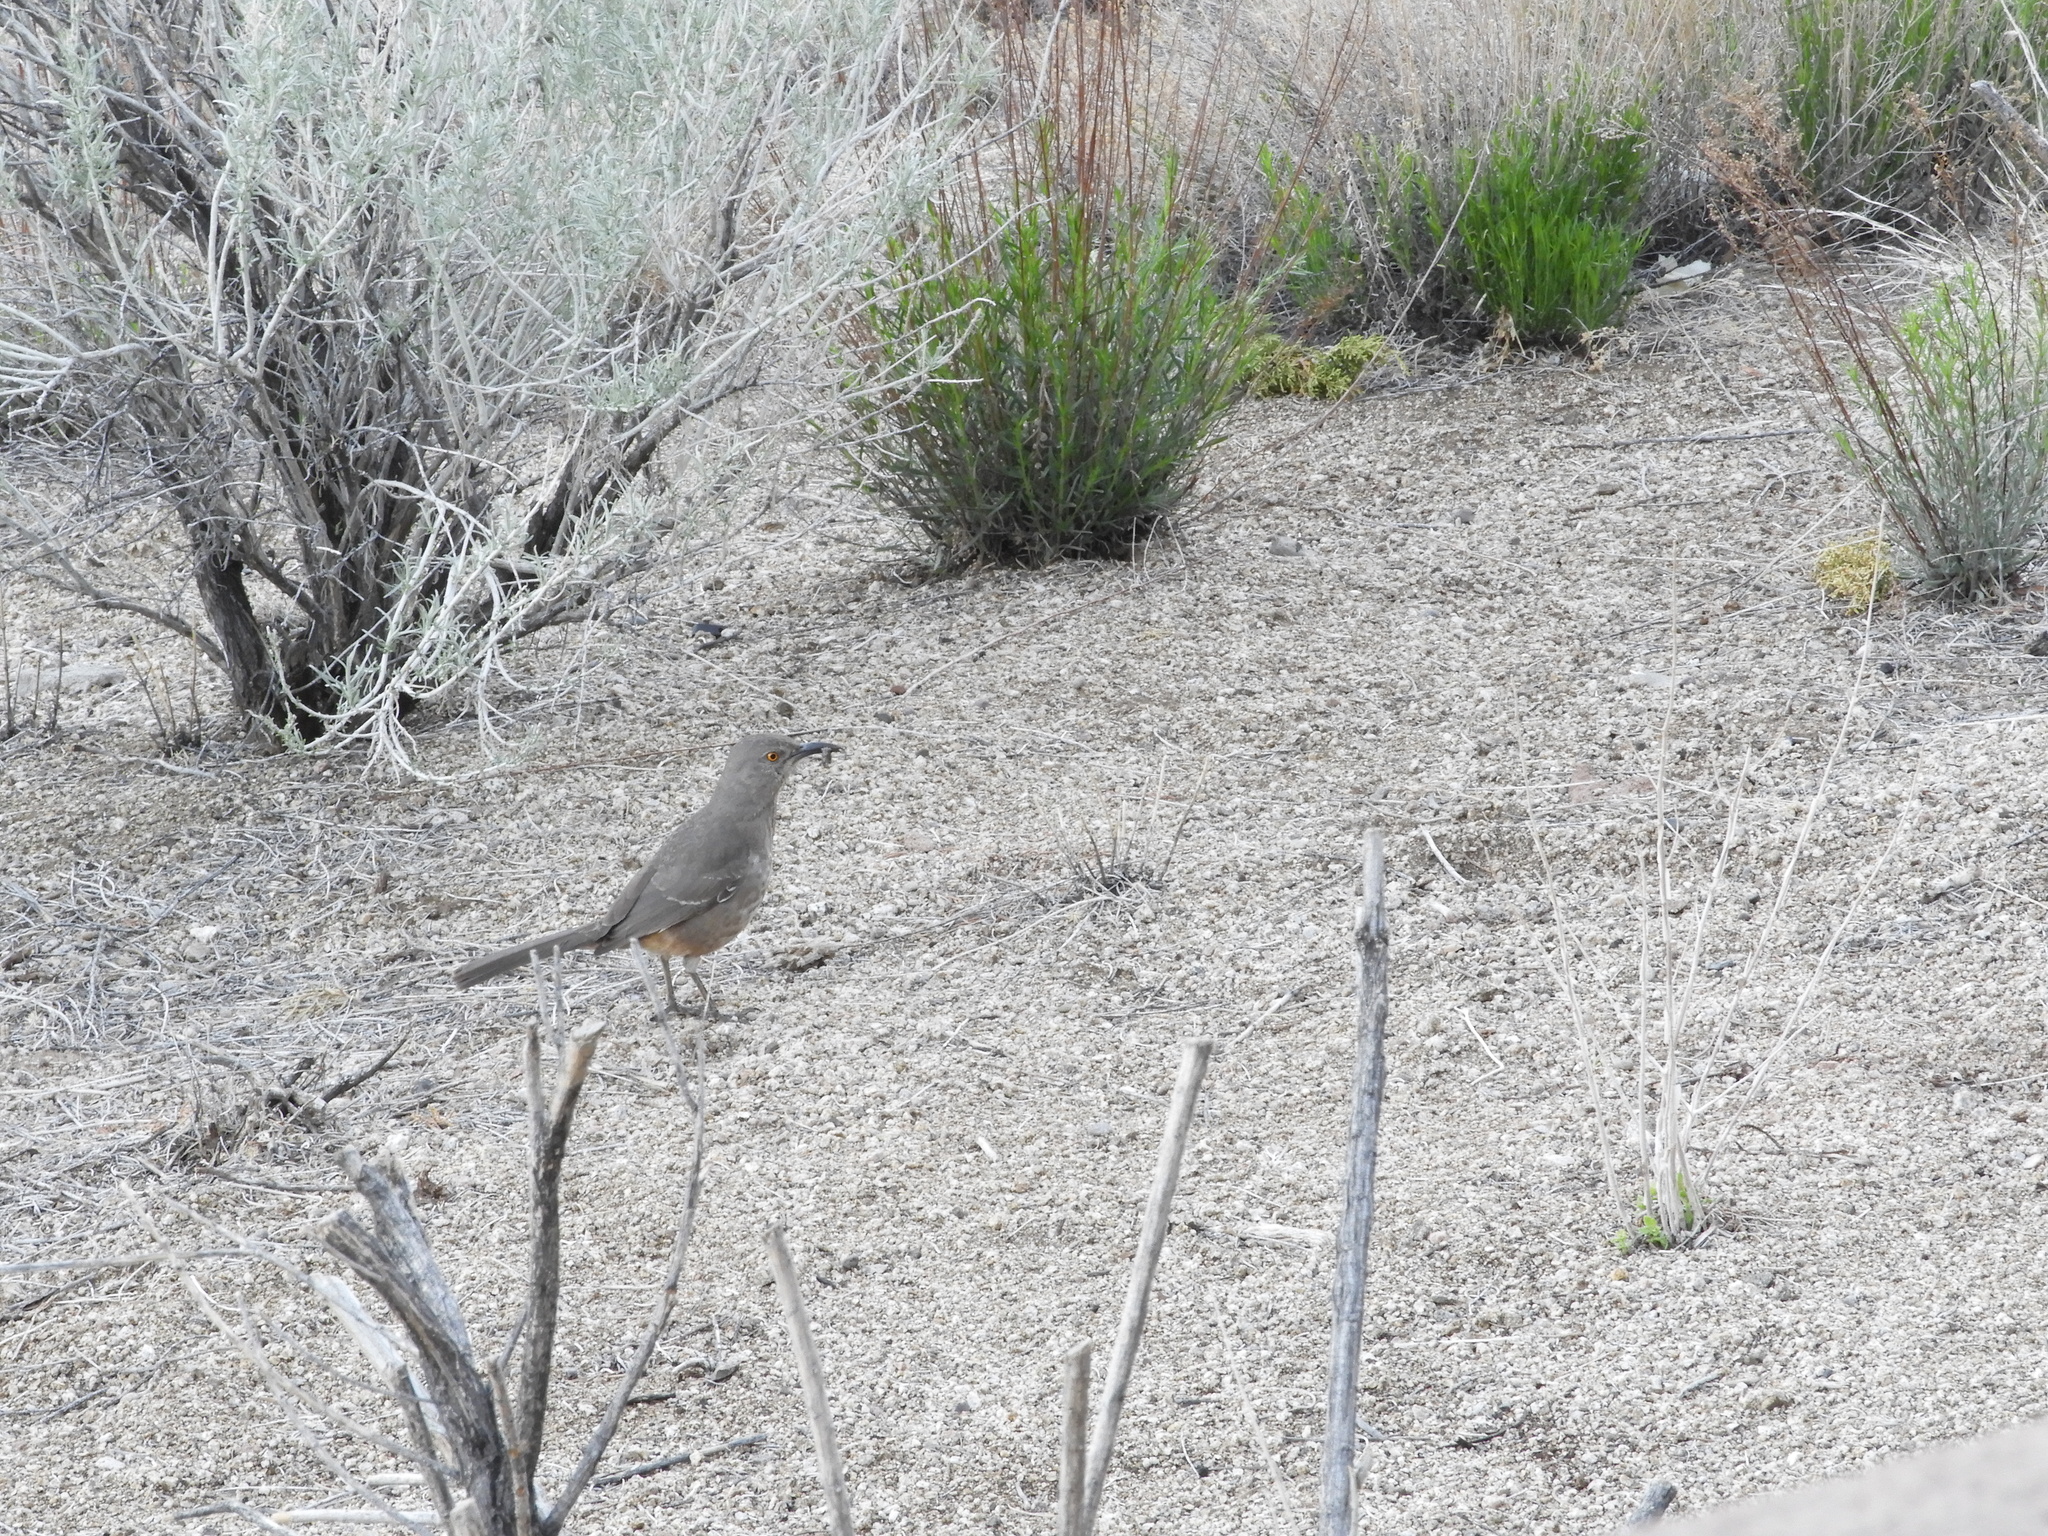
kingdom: Animalia
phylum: Chordata
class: Aves
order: Passeriformes
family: Mimidae
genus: Toxostoma
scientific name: Toxostoma curvirostre
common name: Curve-billed thrasher
